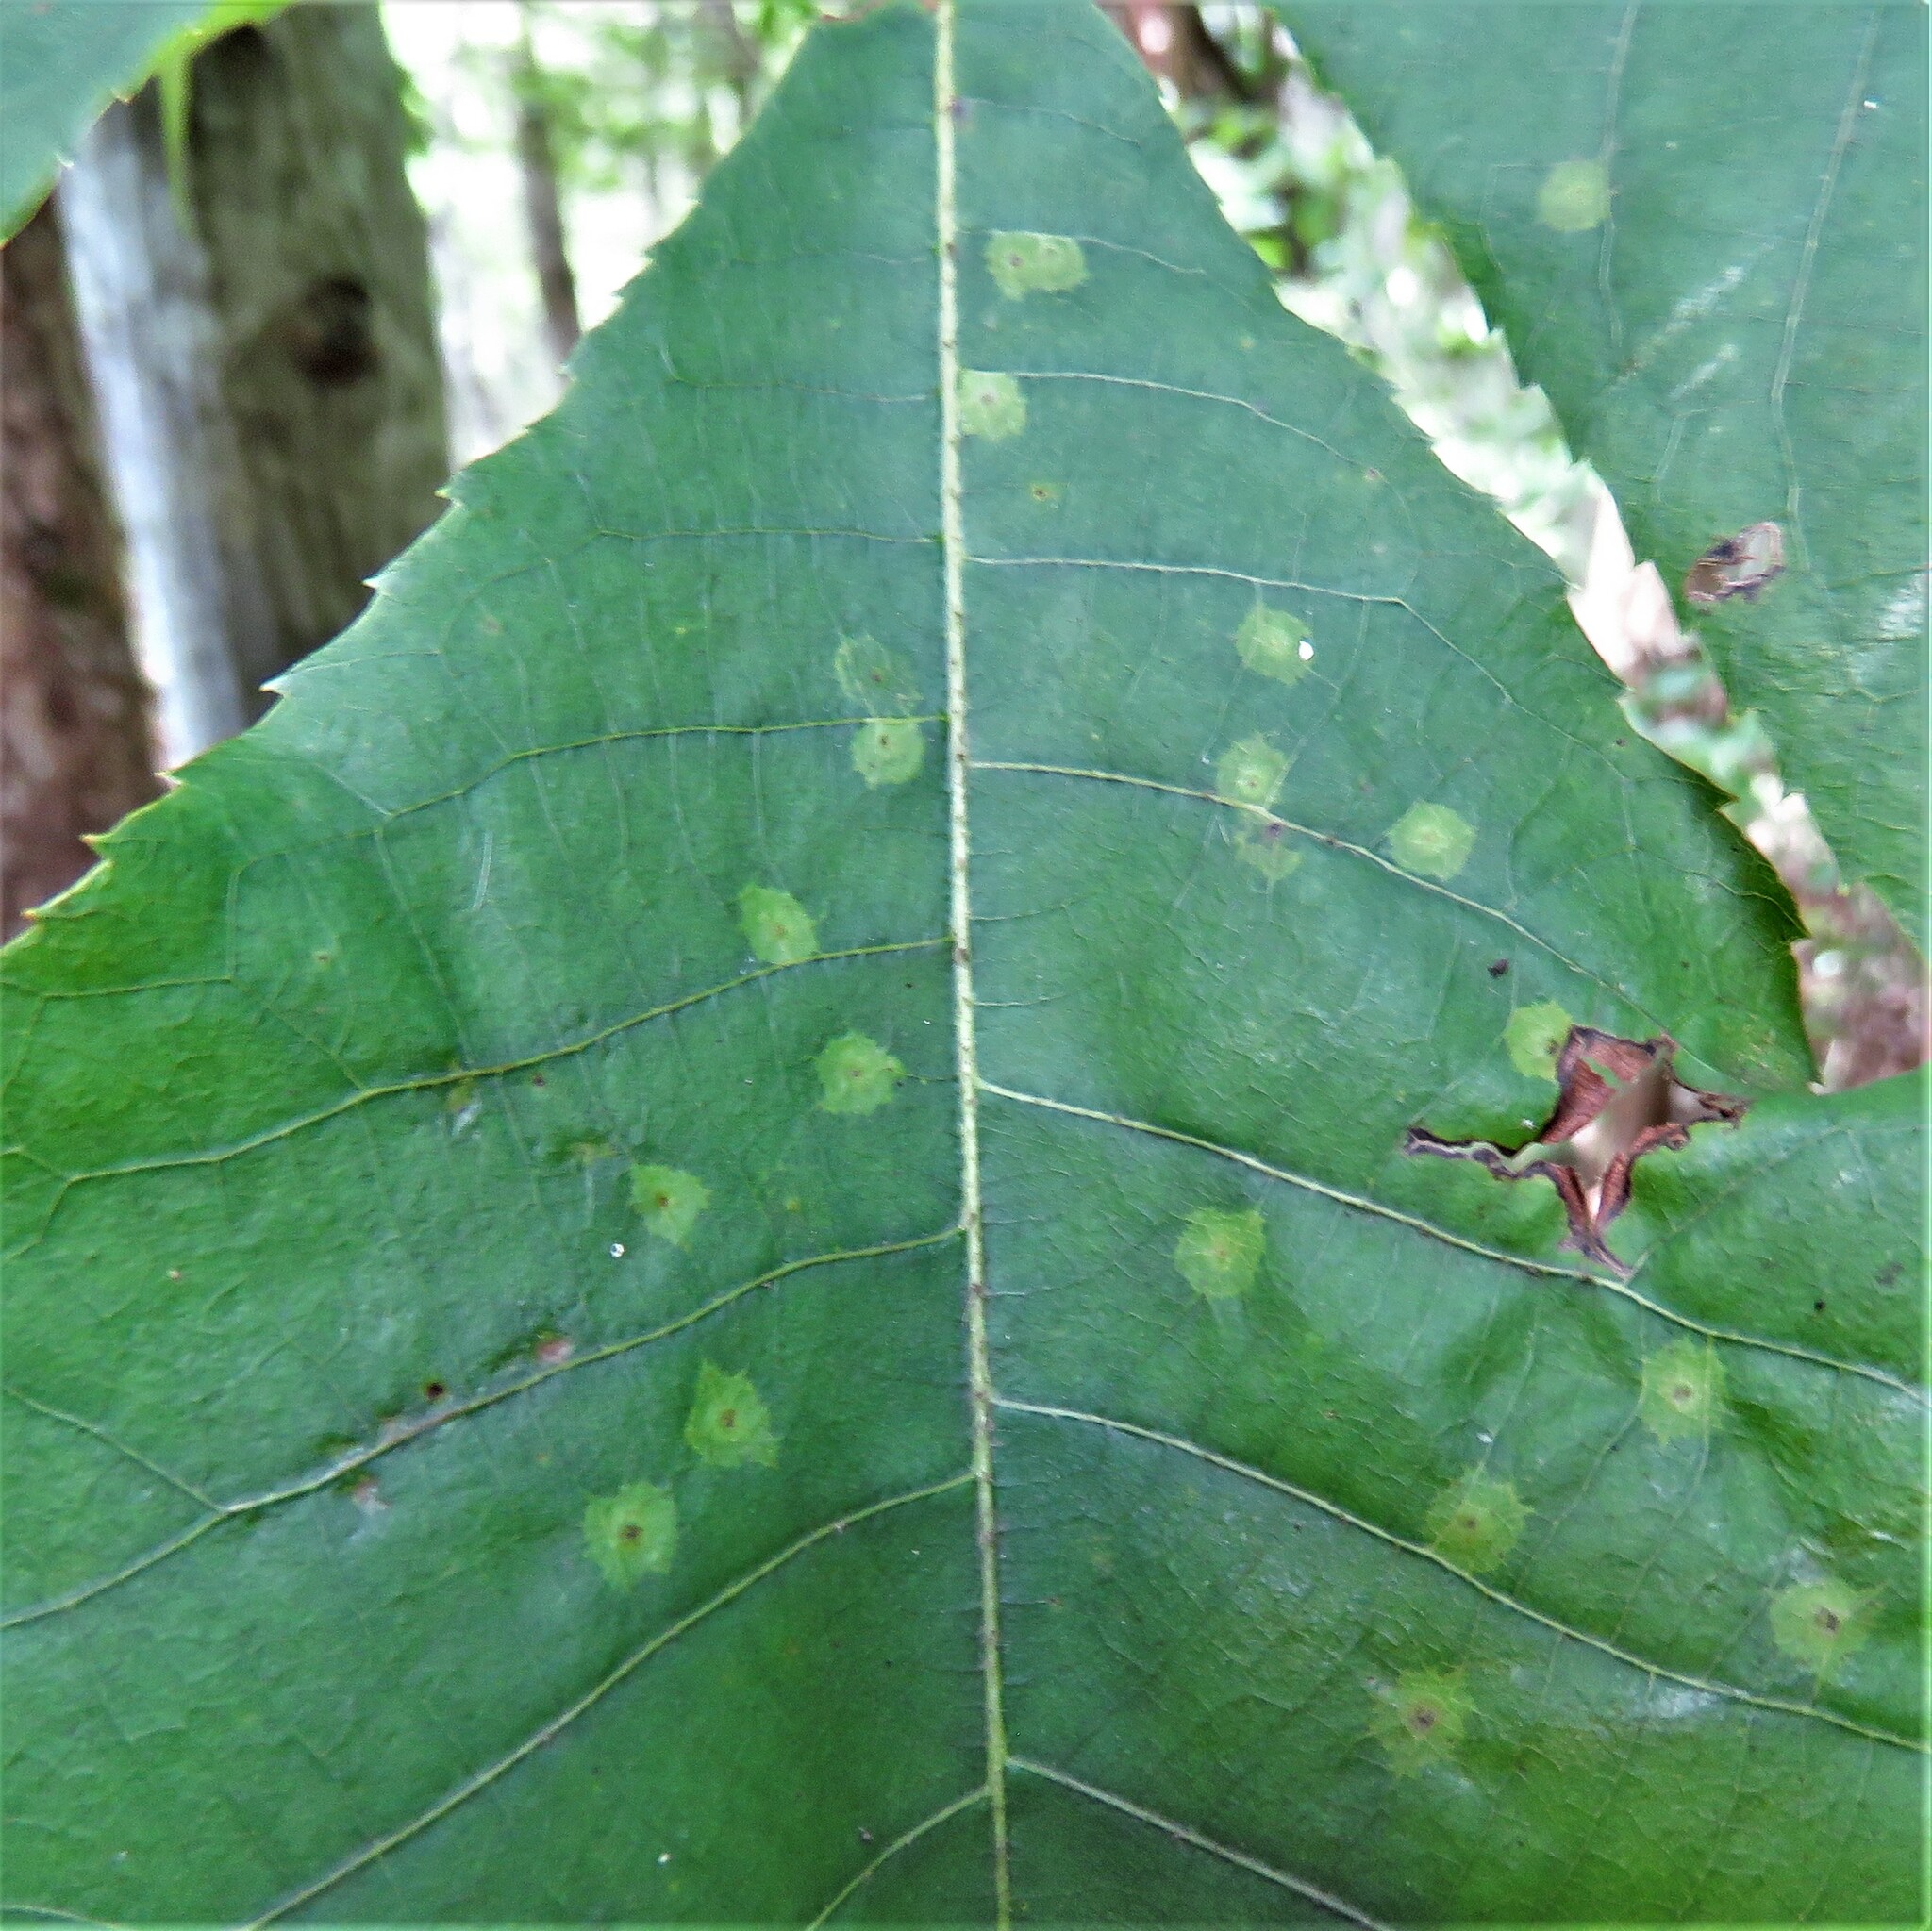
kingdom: Animalia
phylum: Arthropoda
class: Insecta
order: Diptera
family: Cecidomyiidae
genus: Caryomyia
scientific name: Caryomyia tubicola
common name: Hickory bullet gall midge
